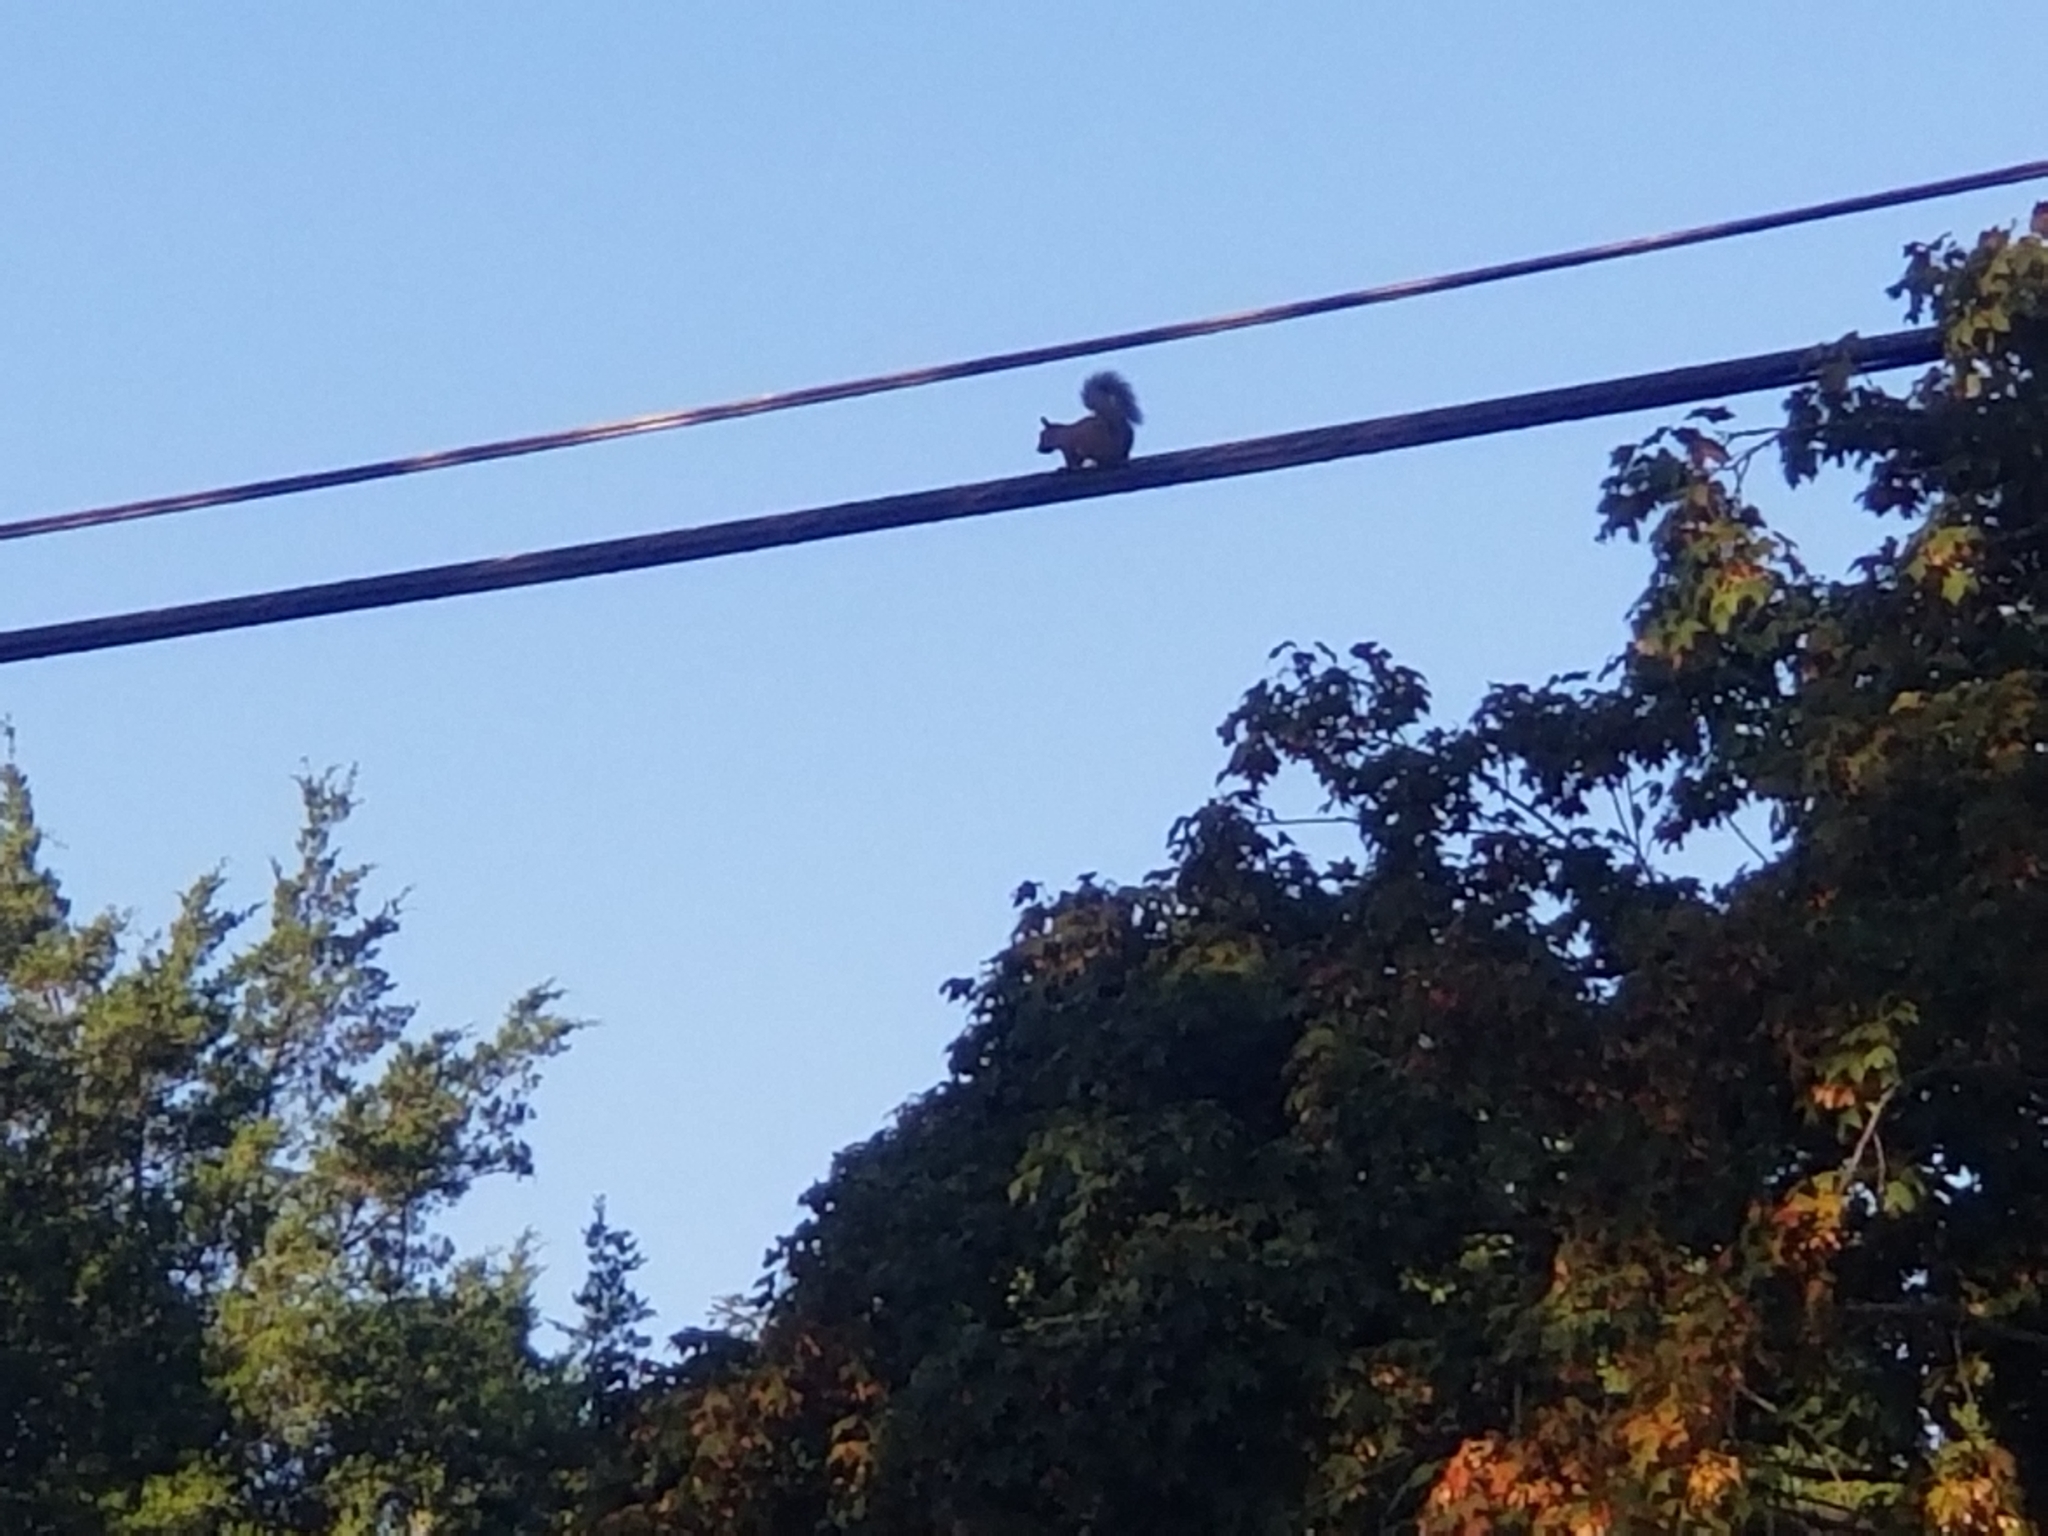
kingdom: Animalia
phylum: Chordata
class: Mammalia
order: Rodentia
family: Sciuridae
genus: Sciurus
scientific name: Sciurus carolinensis
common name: Eastern gray squirrel
